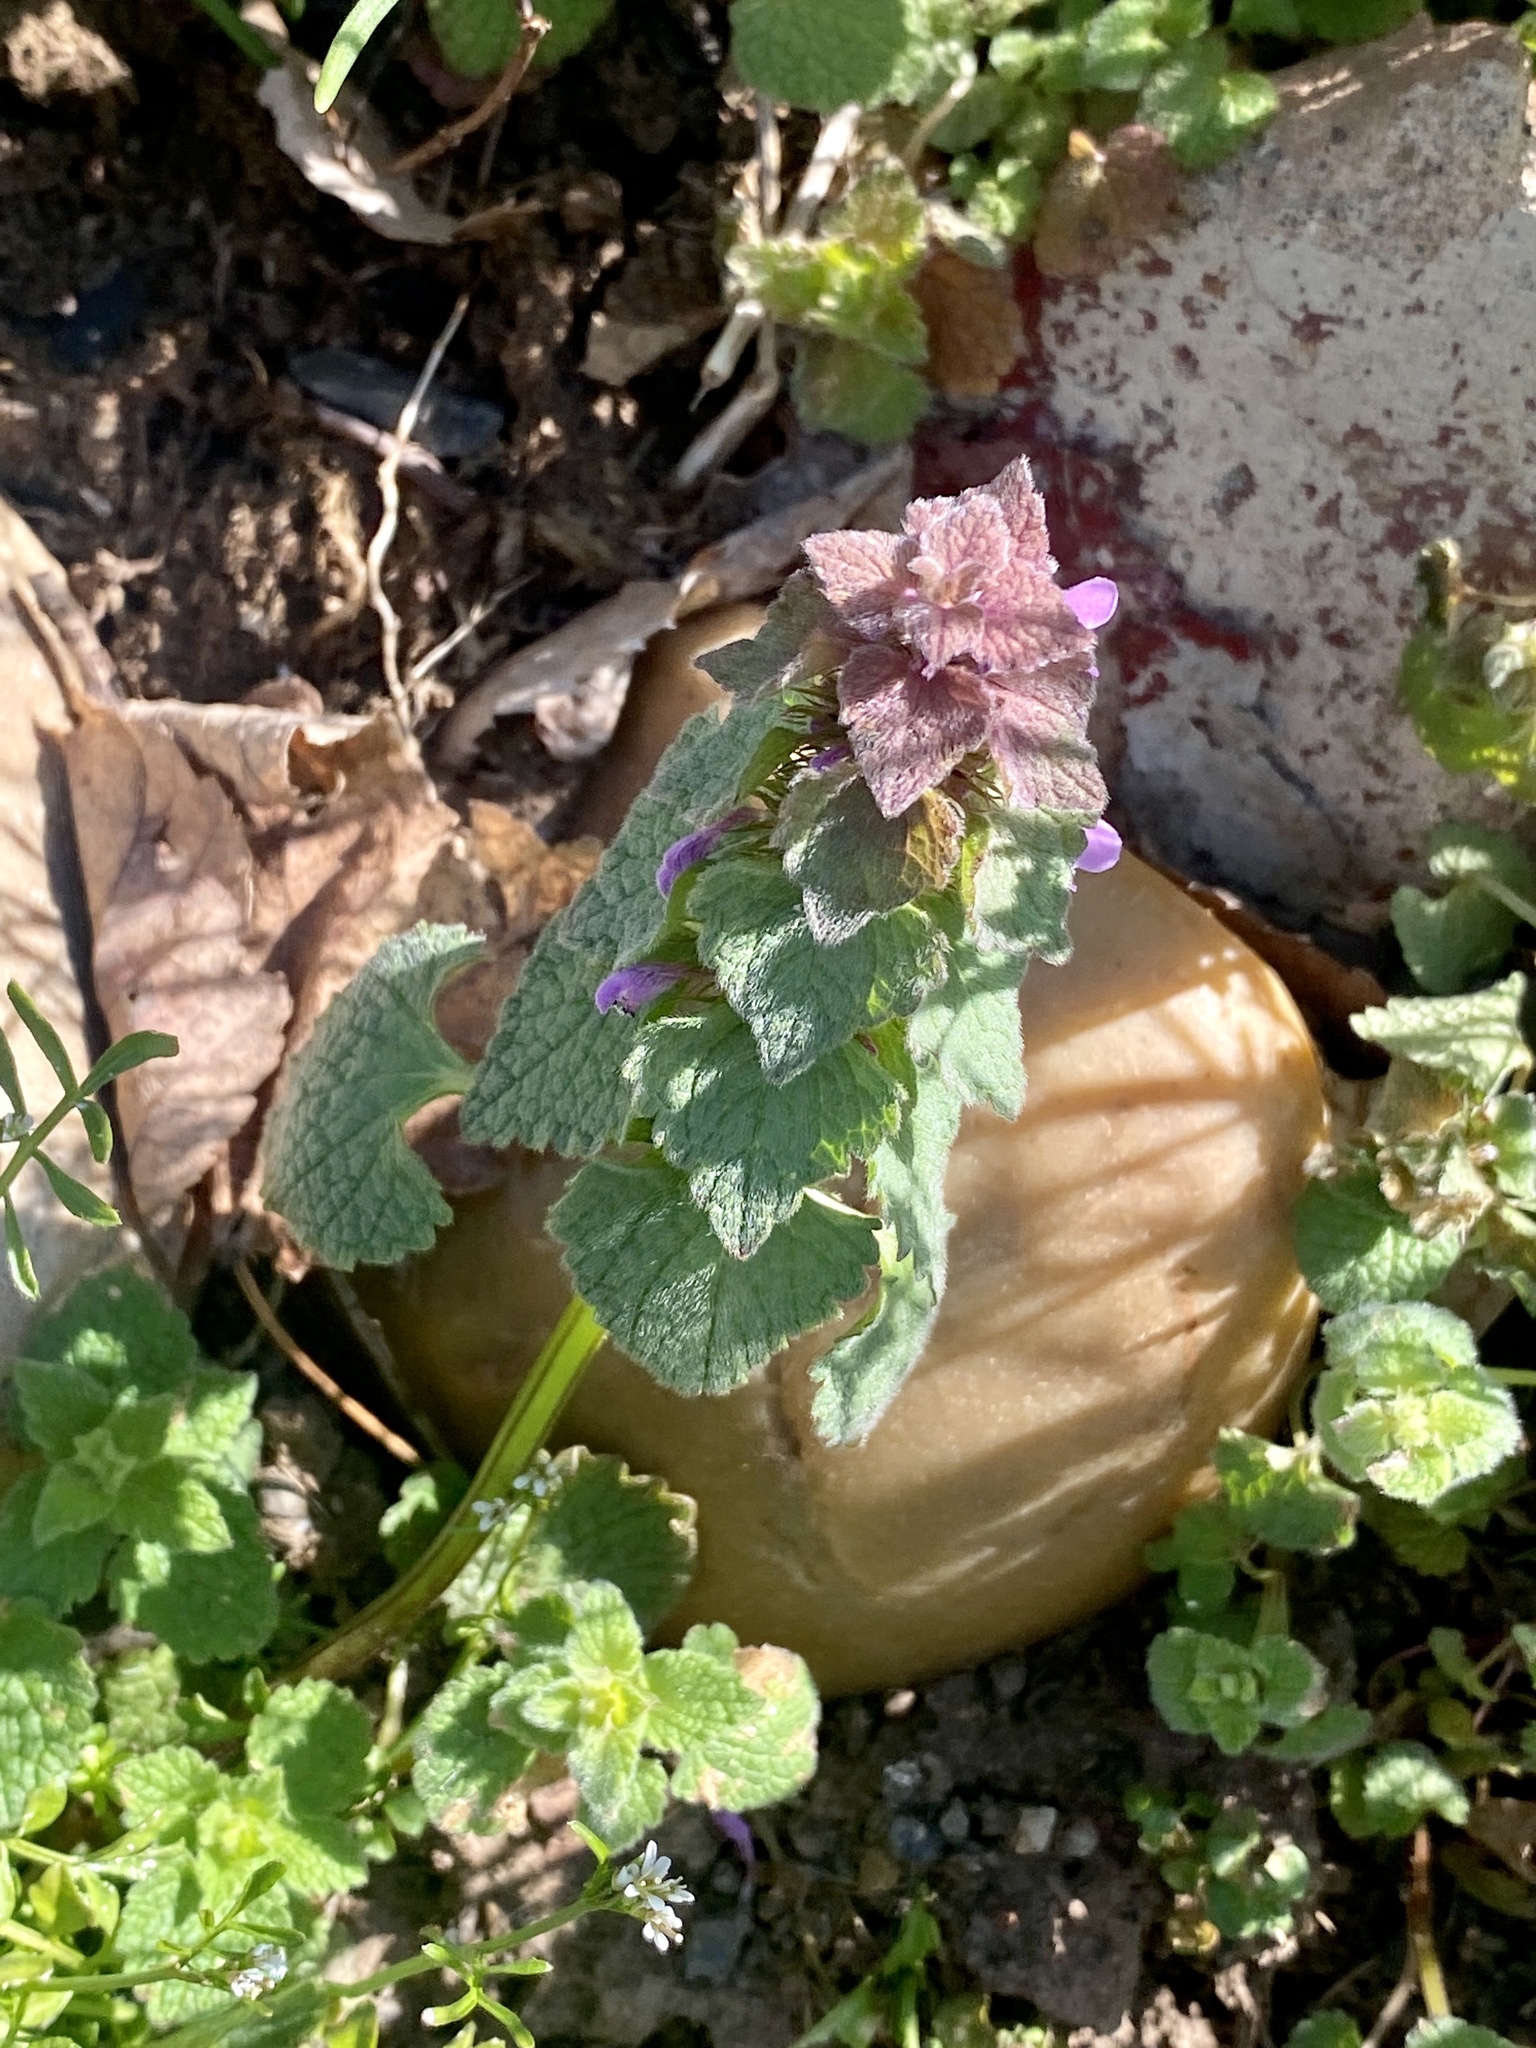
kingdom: Plantae
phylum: Tracheophyta
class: Magnoliopsida
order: Lamiales
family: Lamiaceae
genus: Lamium
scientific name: Lamium purpureum
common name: Red dead-nettle
